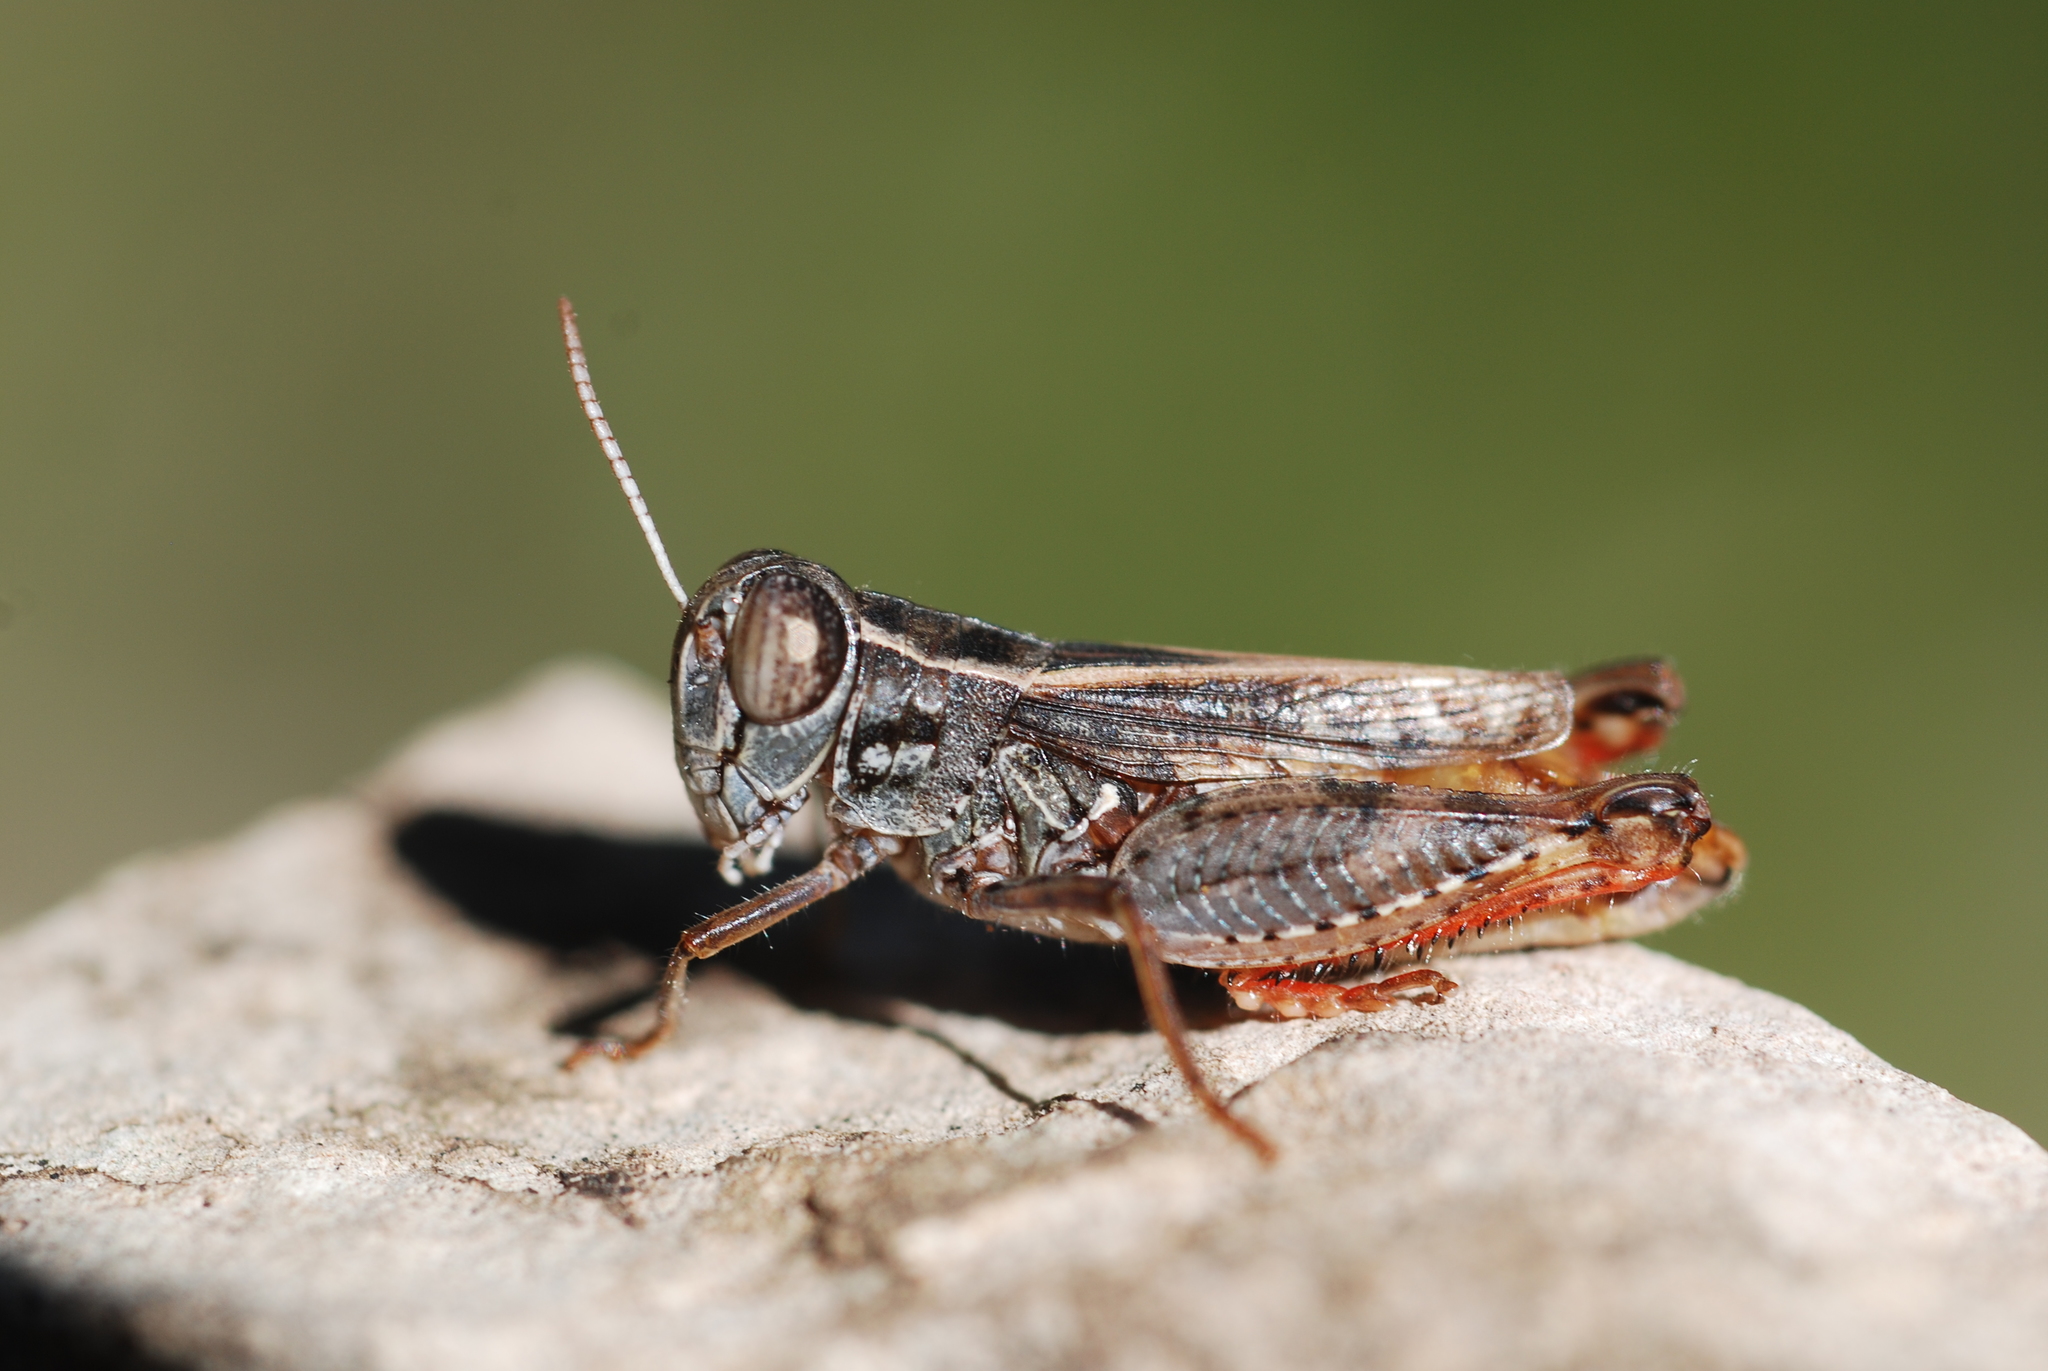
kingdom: Animalia
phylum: Arthropoda
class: Insecta
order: Orthoptera
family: Acrididae
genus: Calliptamus
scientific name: Calliptamus siciliae
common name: Pygmy pincer grasshopper
